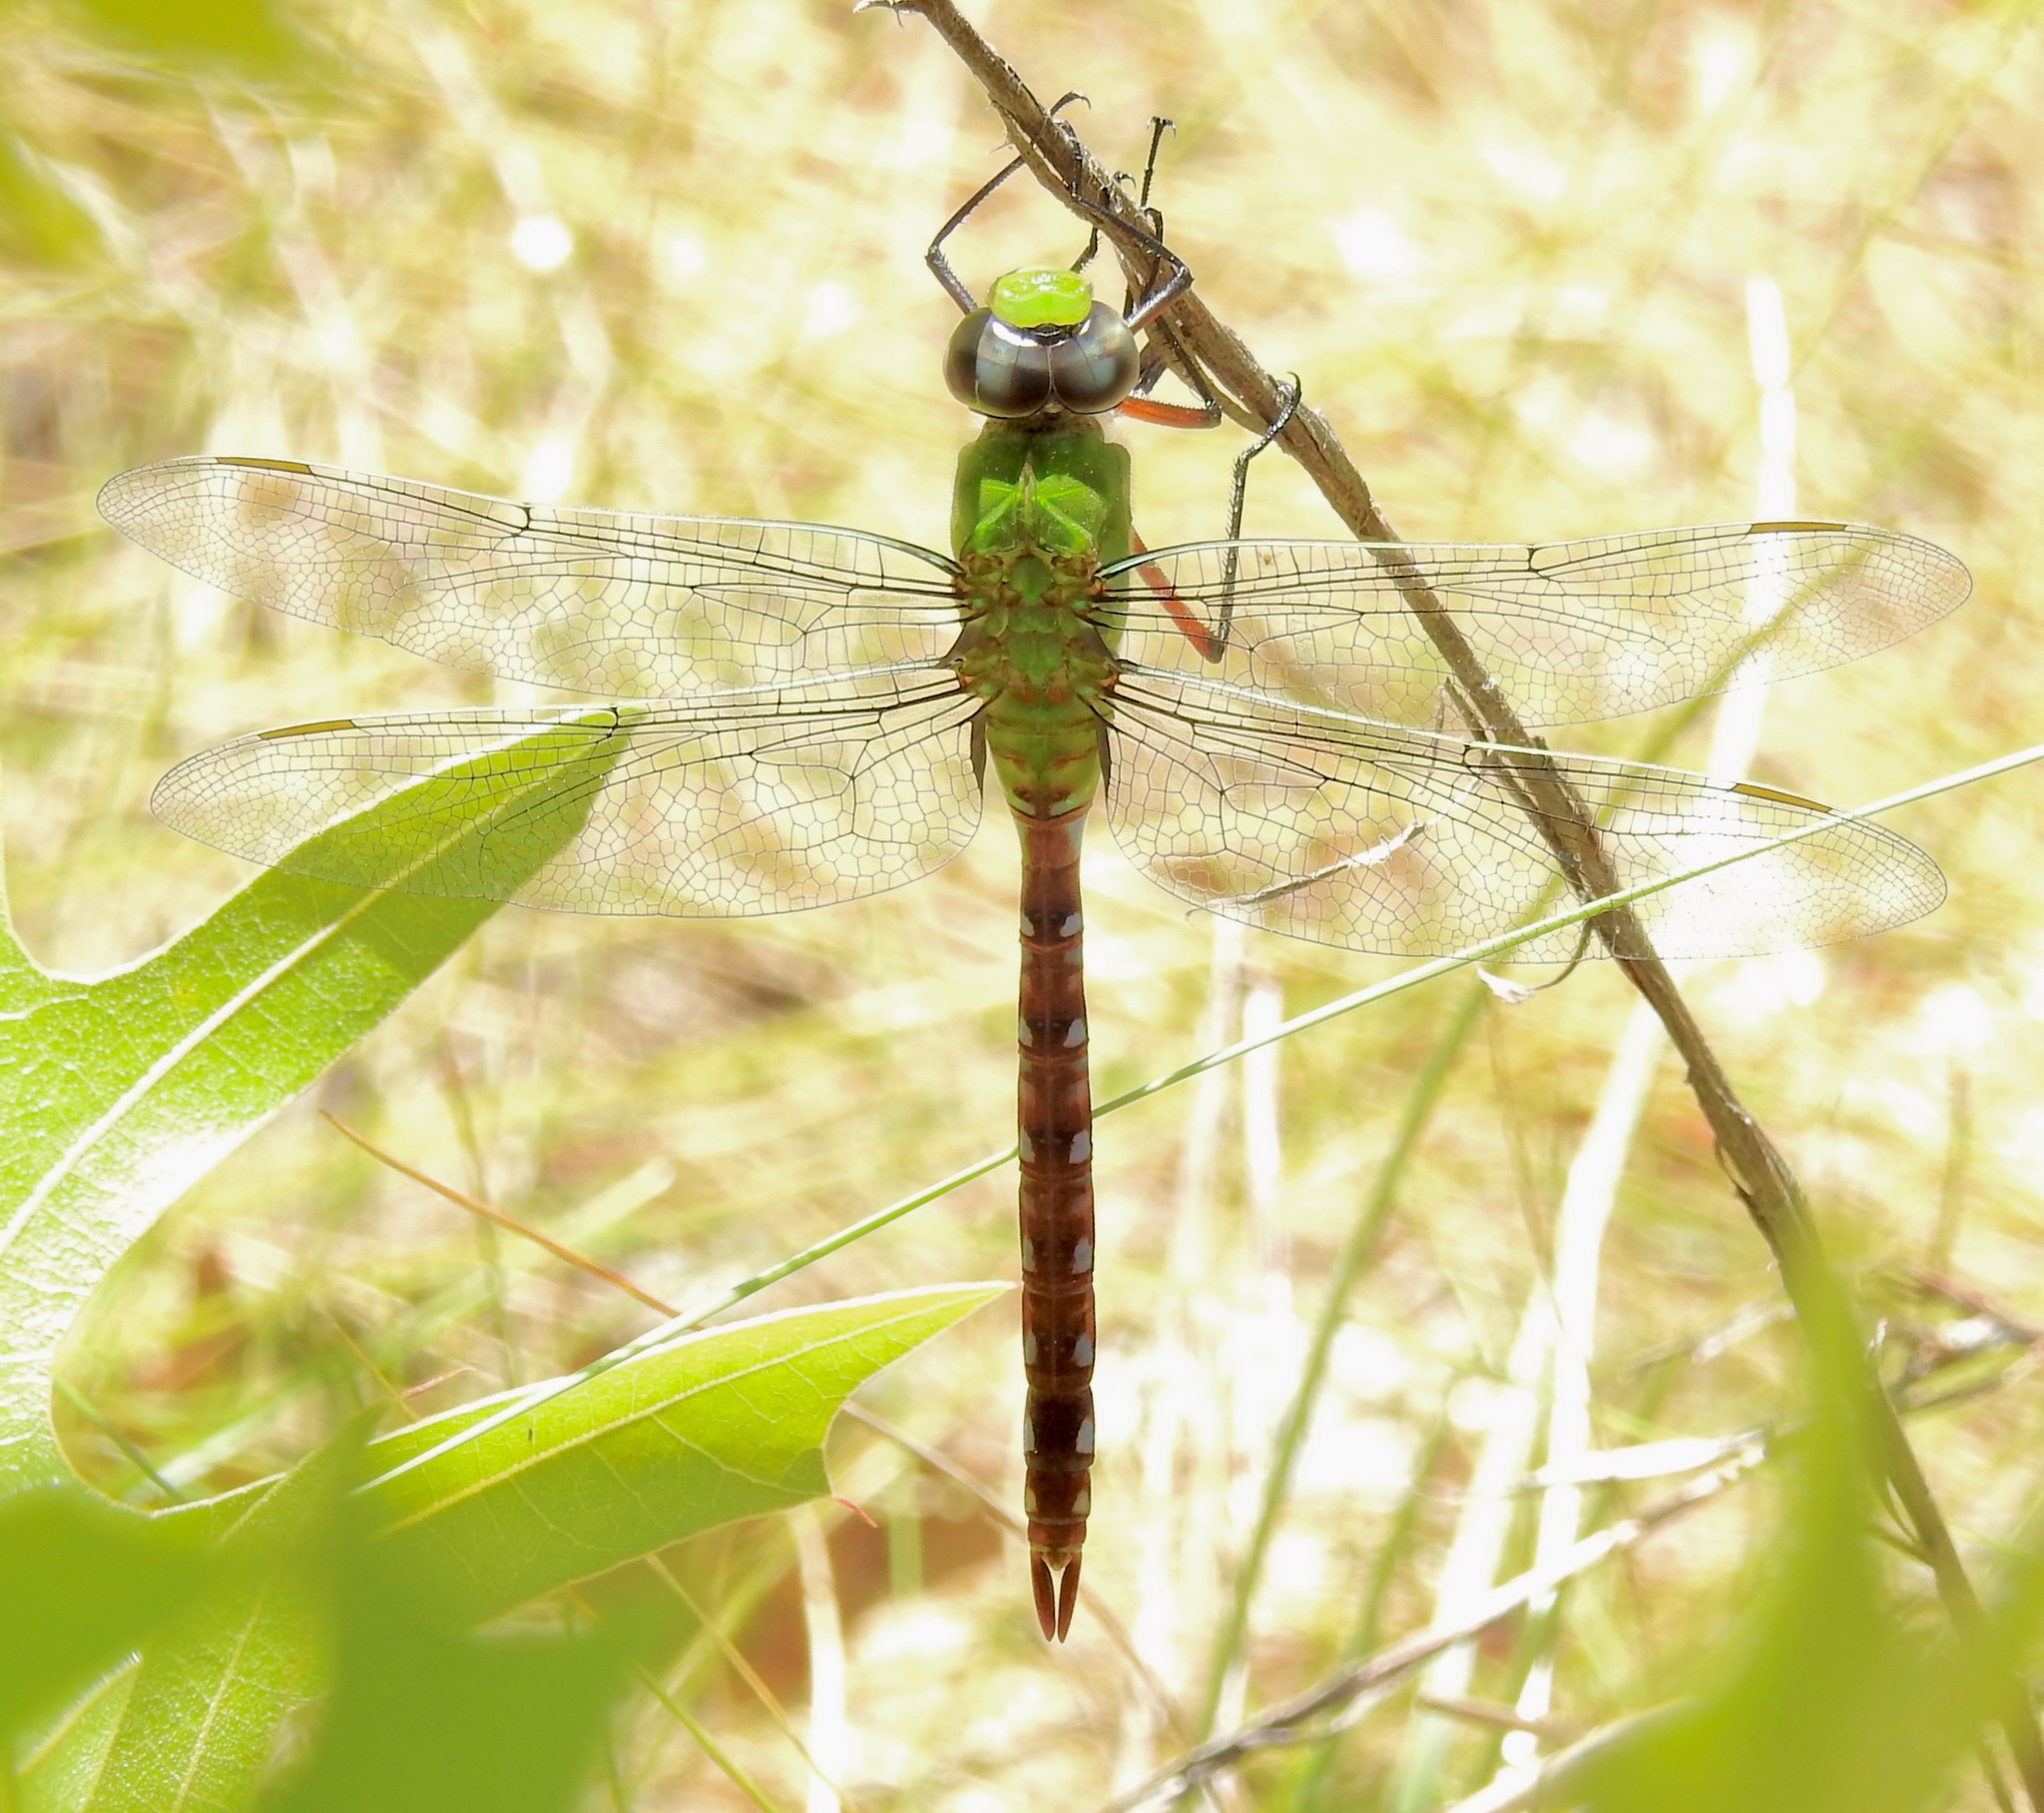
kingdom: Animalia
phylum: Arthropoda
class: Insecta
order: Odonata
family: Aeshnidae
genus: Anax
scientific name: Anax longipes
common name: Comet darner
